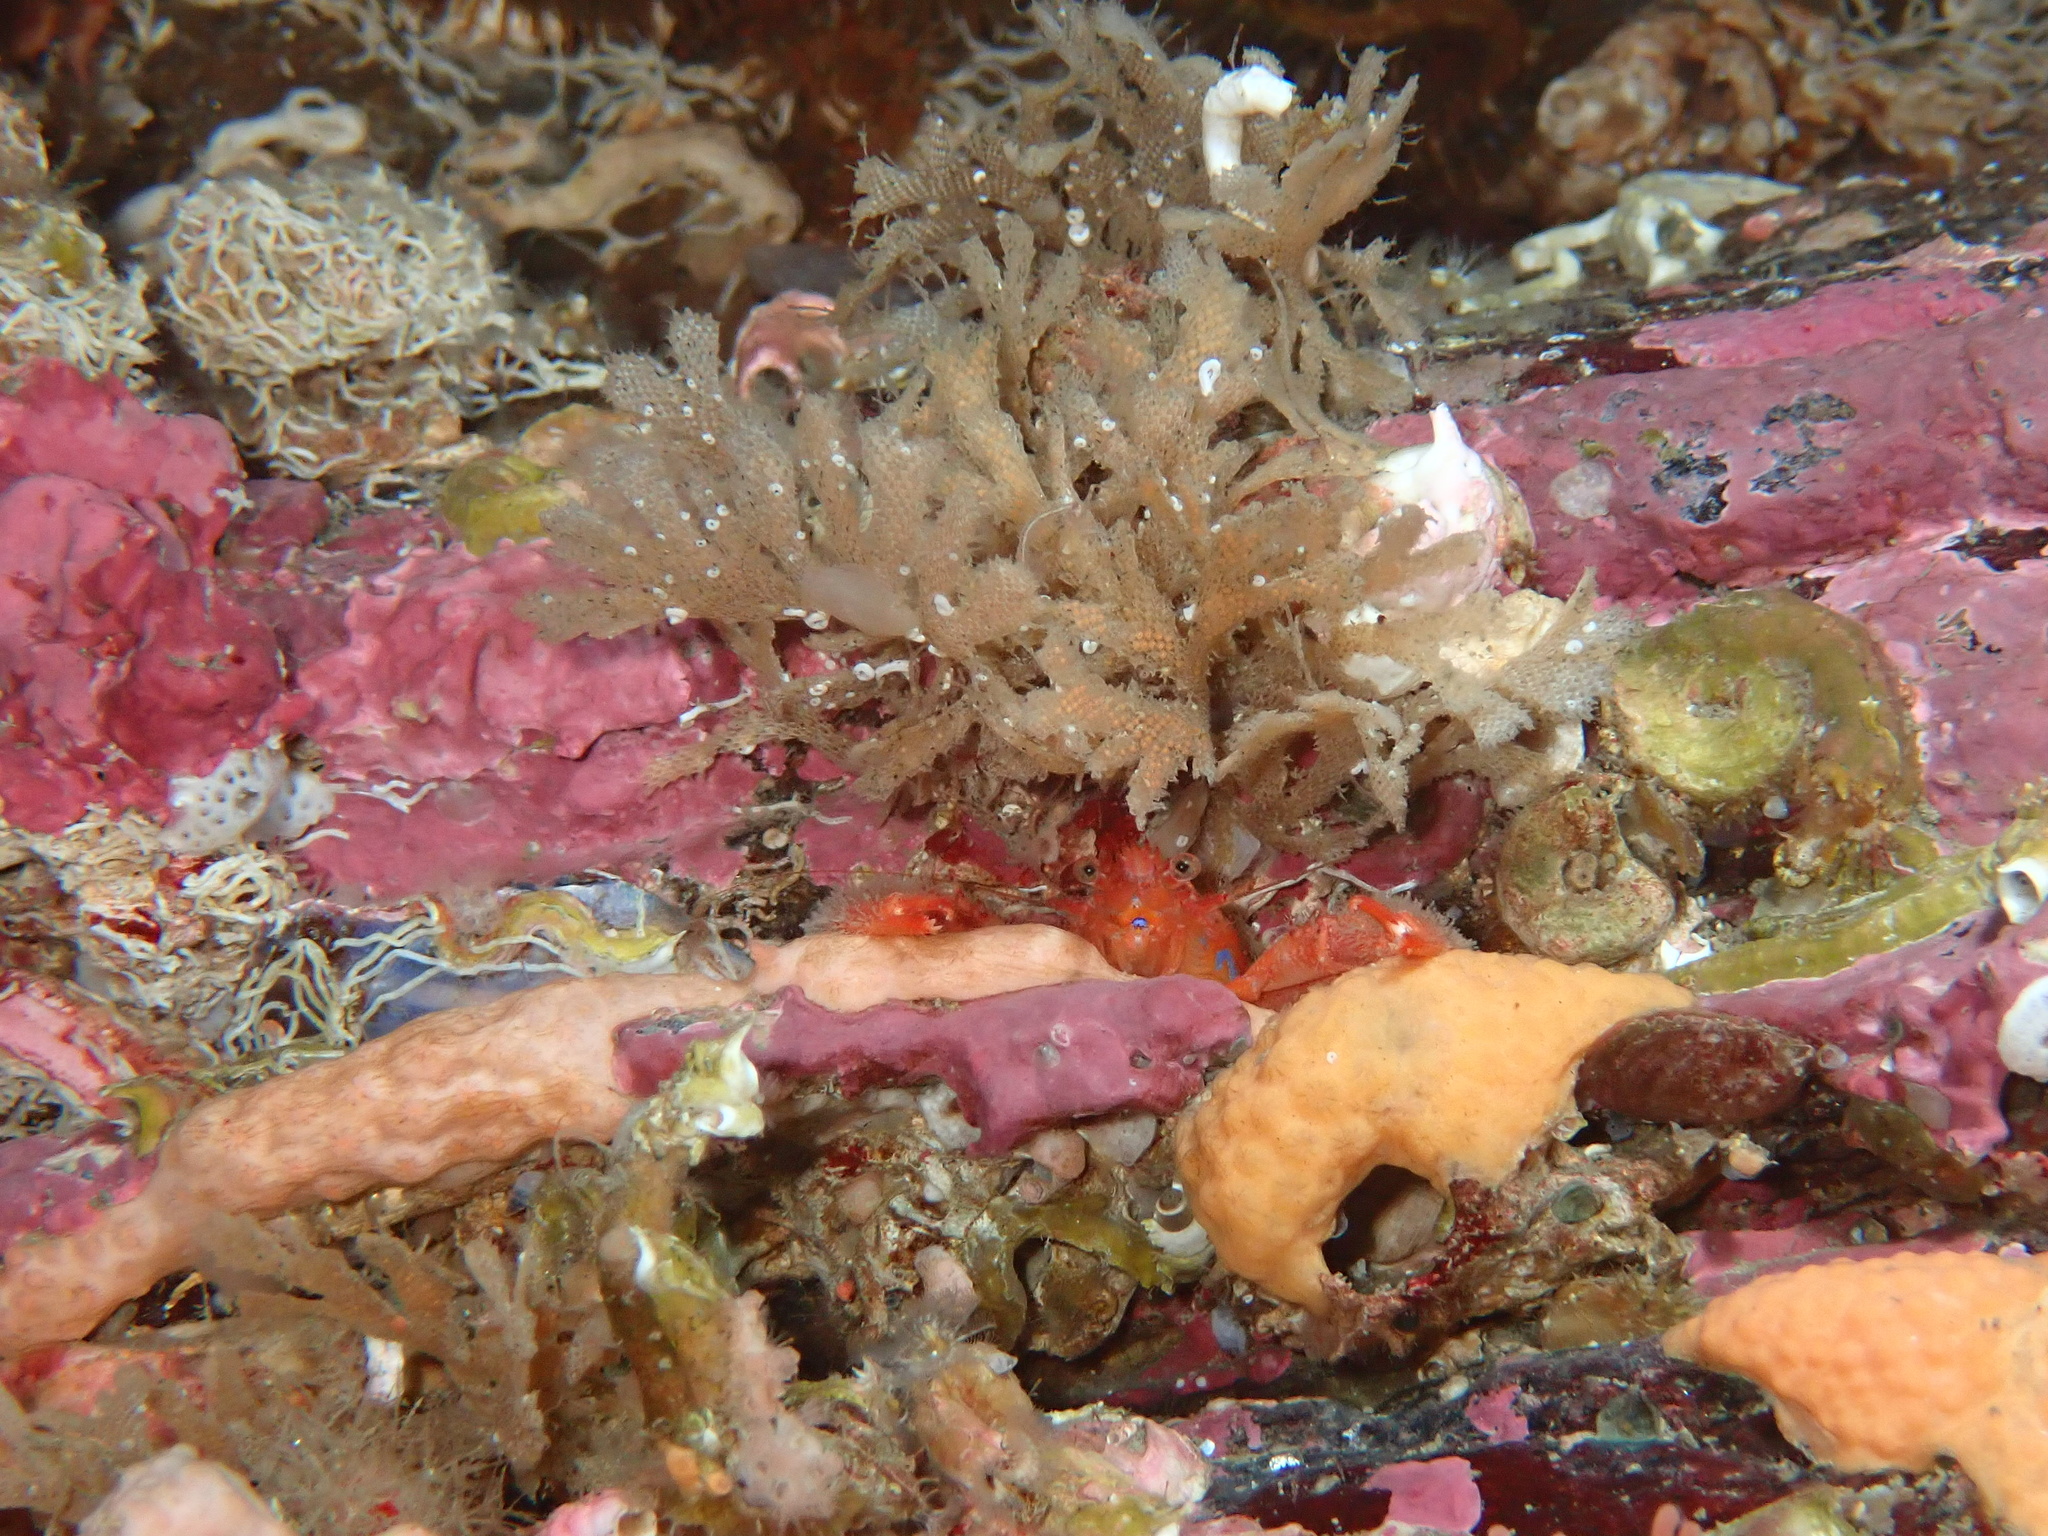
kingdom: Animalia
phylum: Arthropoda
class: Malacostraca
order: Decapoda
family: Galatheidae
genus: Galathea
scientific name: Galathea nexa
